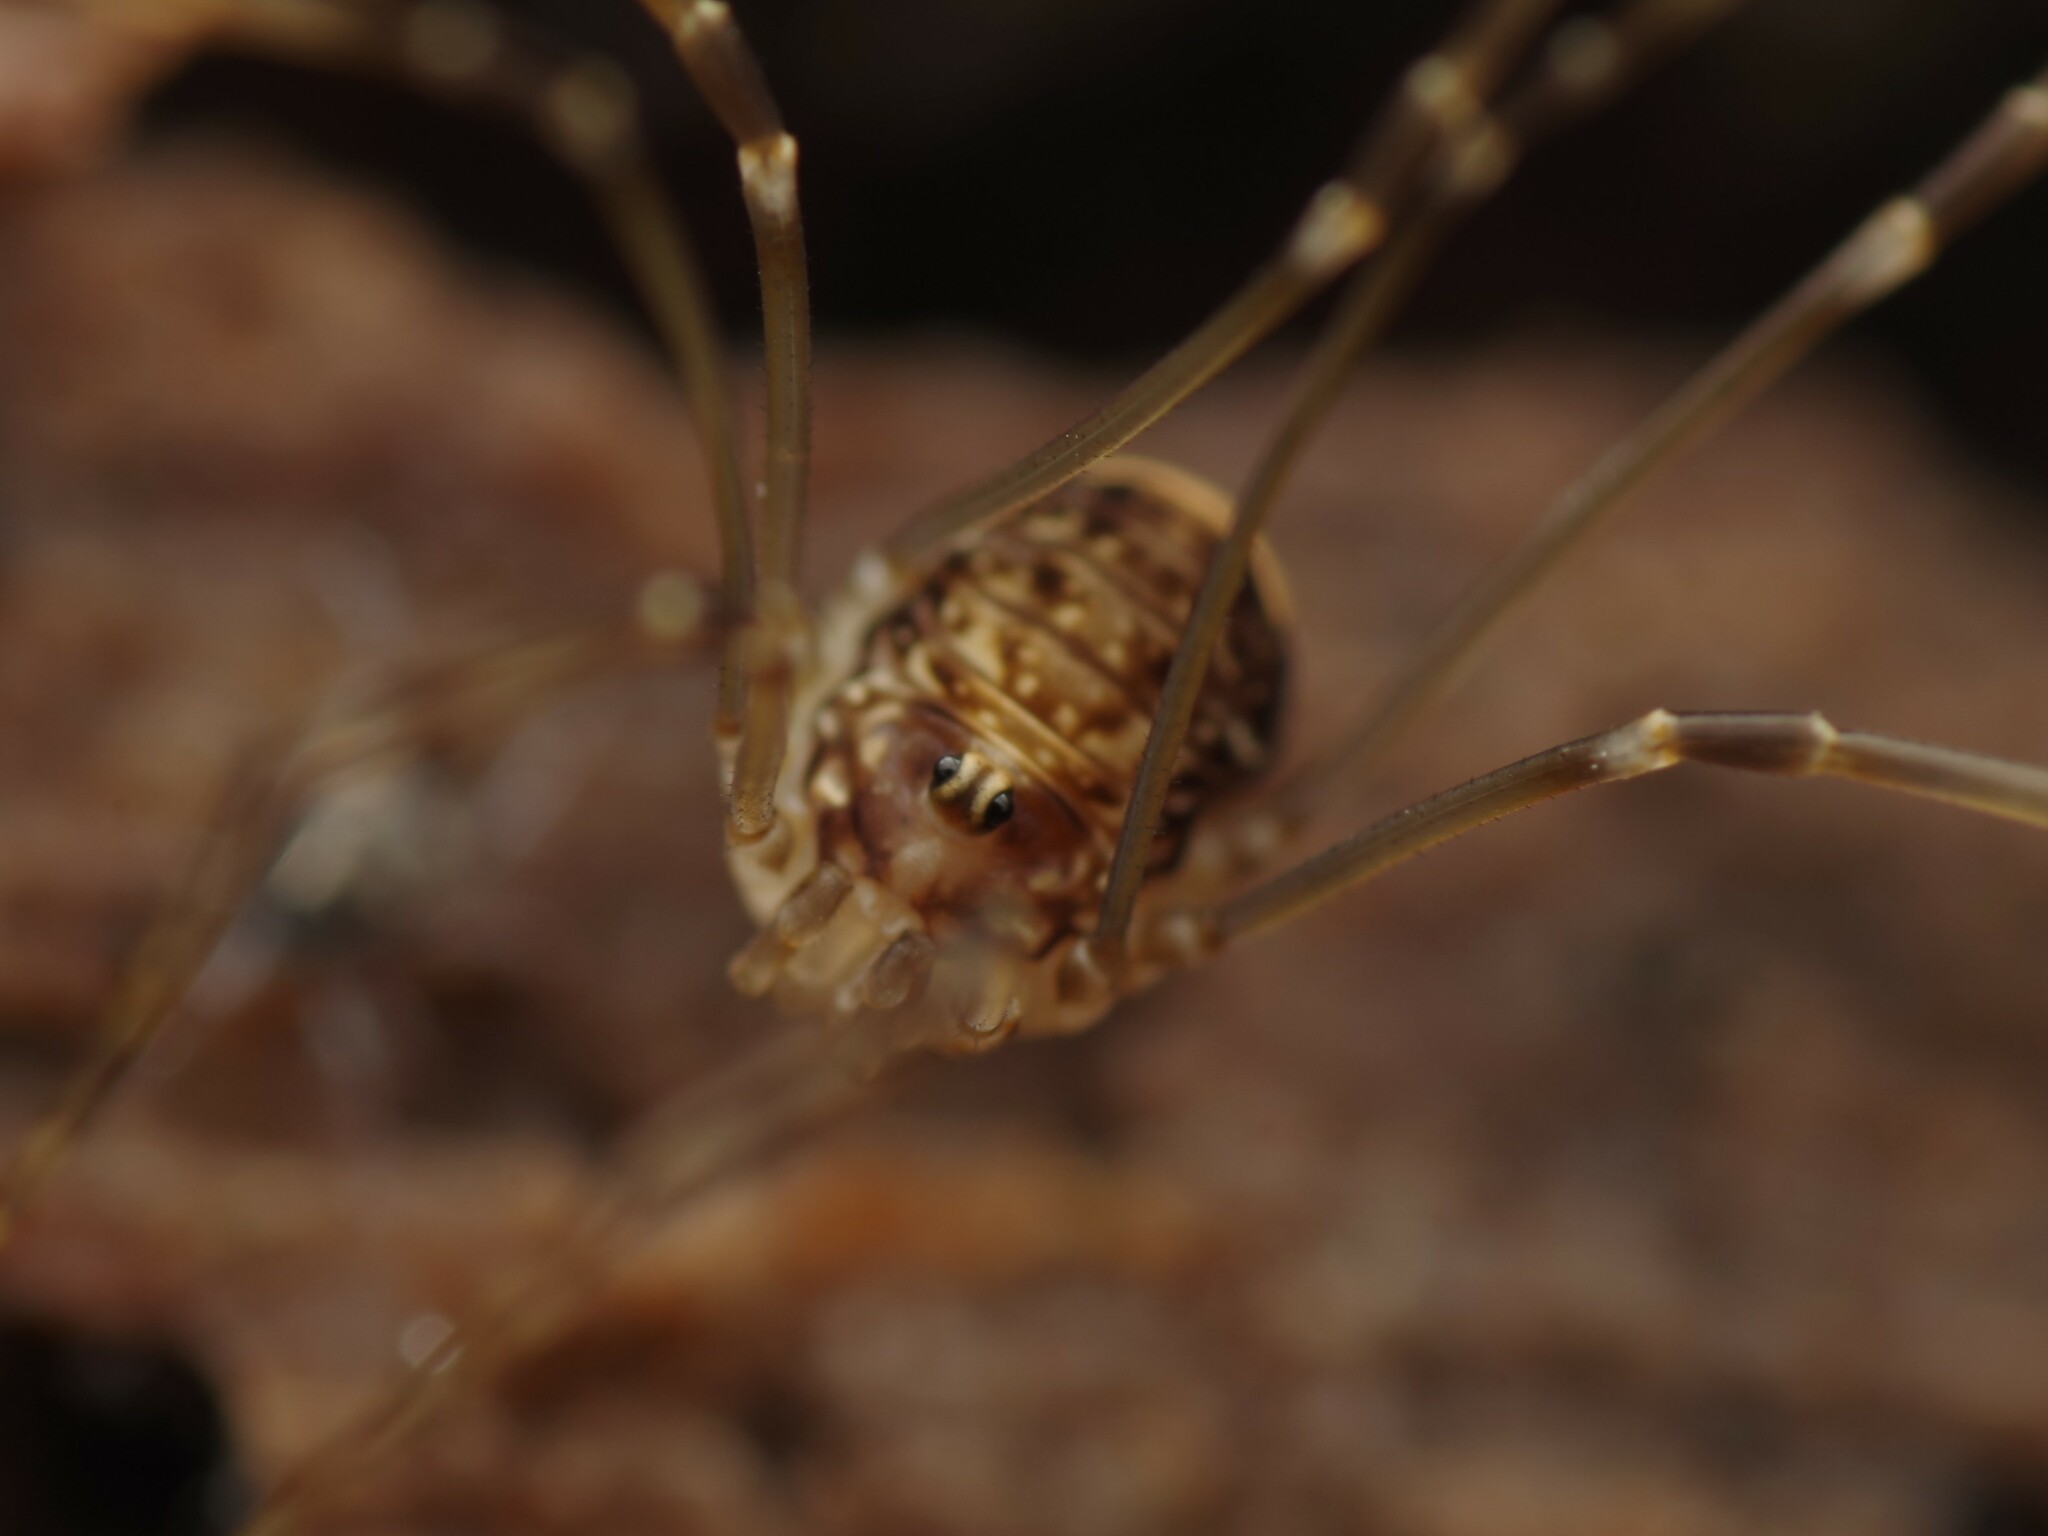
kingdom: Animalia
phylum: Arthropoda
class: Arachnida
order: Opiliones
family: Sclerosomatidae
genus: Leiobunum
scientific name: Leiobunum blackwalli
